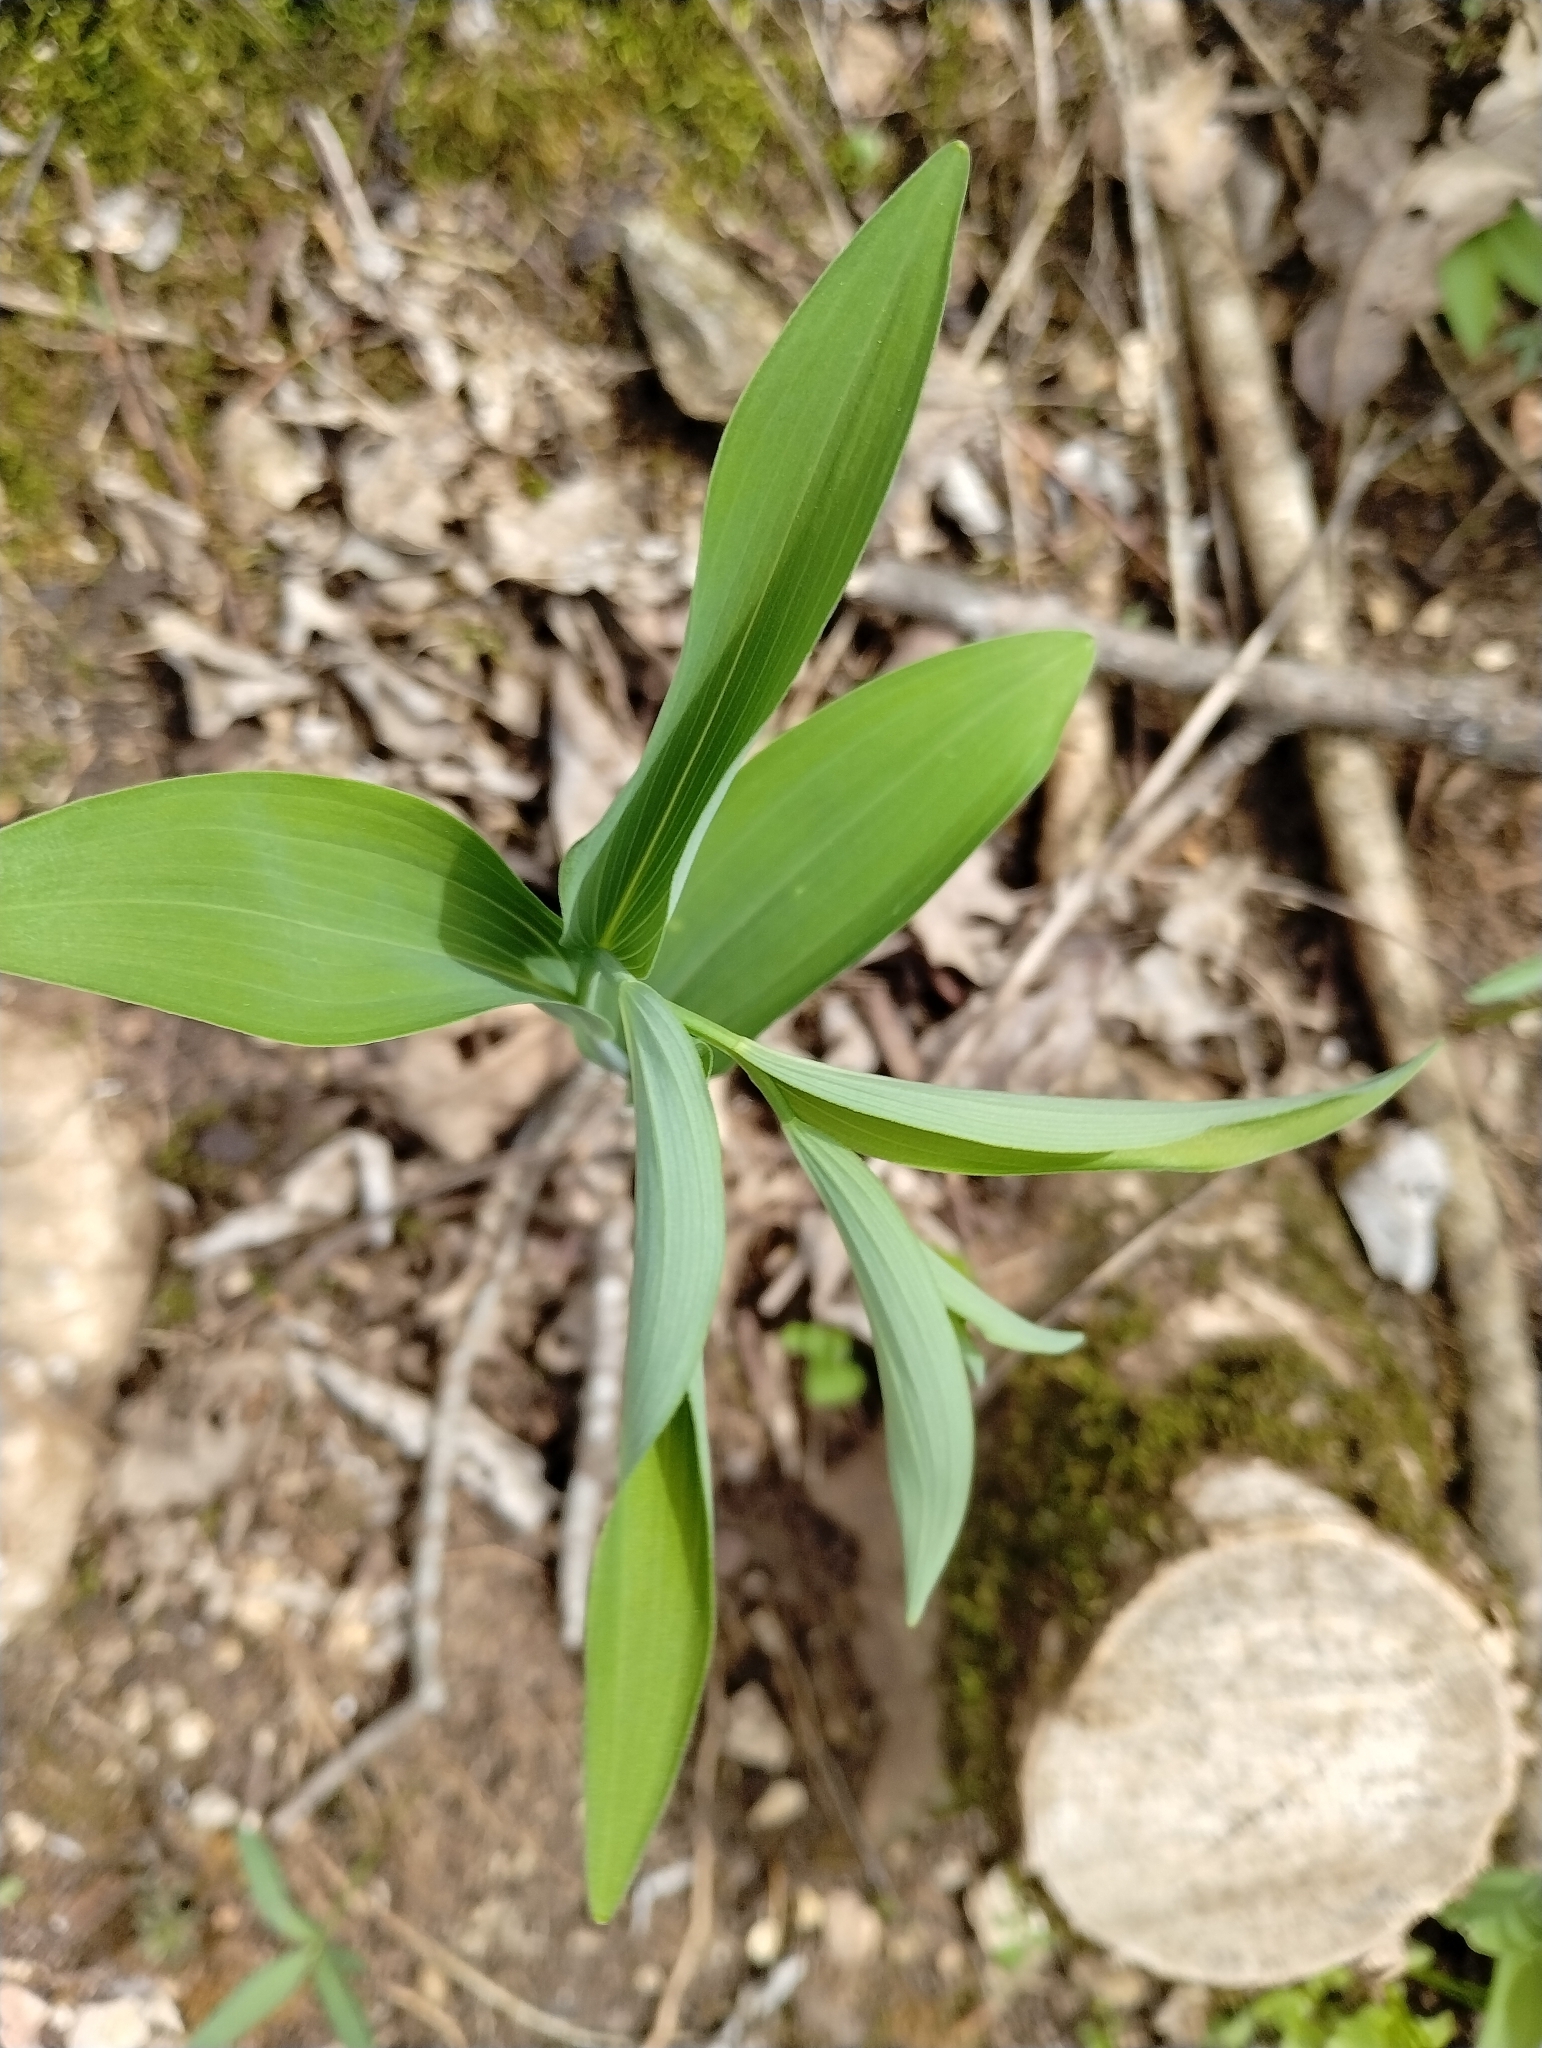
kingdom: Plantae
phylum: Tracheophyta
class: Liliopsida
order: Asparagales
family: Asparagaceae
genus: Polygonatum
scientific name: Polygonatum biflorum
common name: American solomon's-seal
